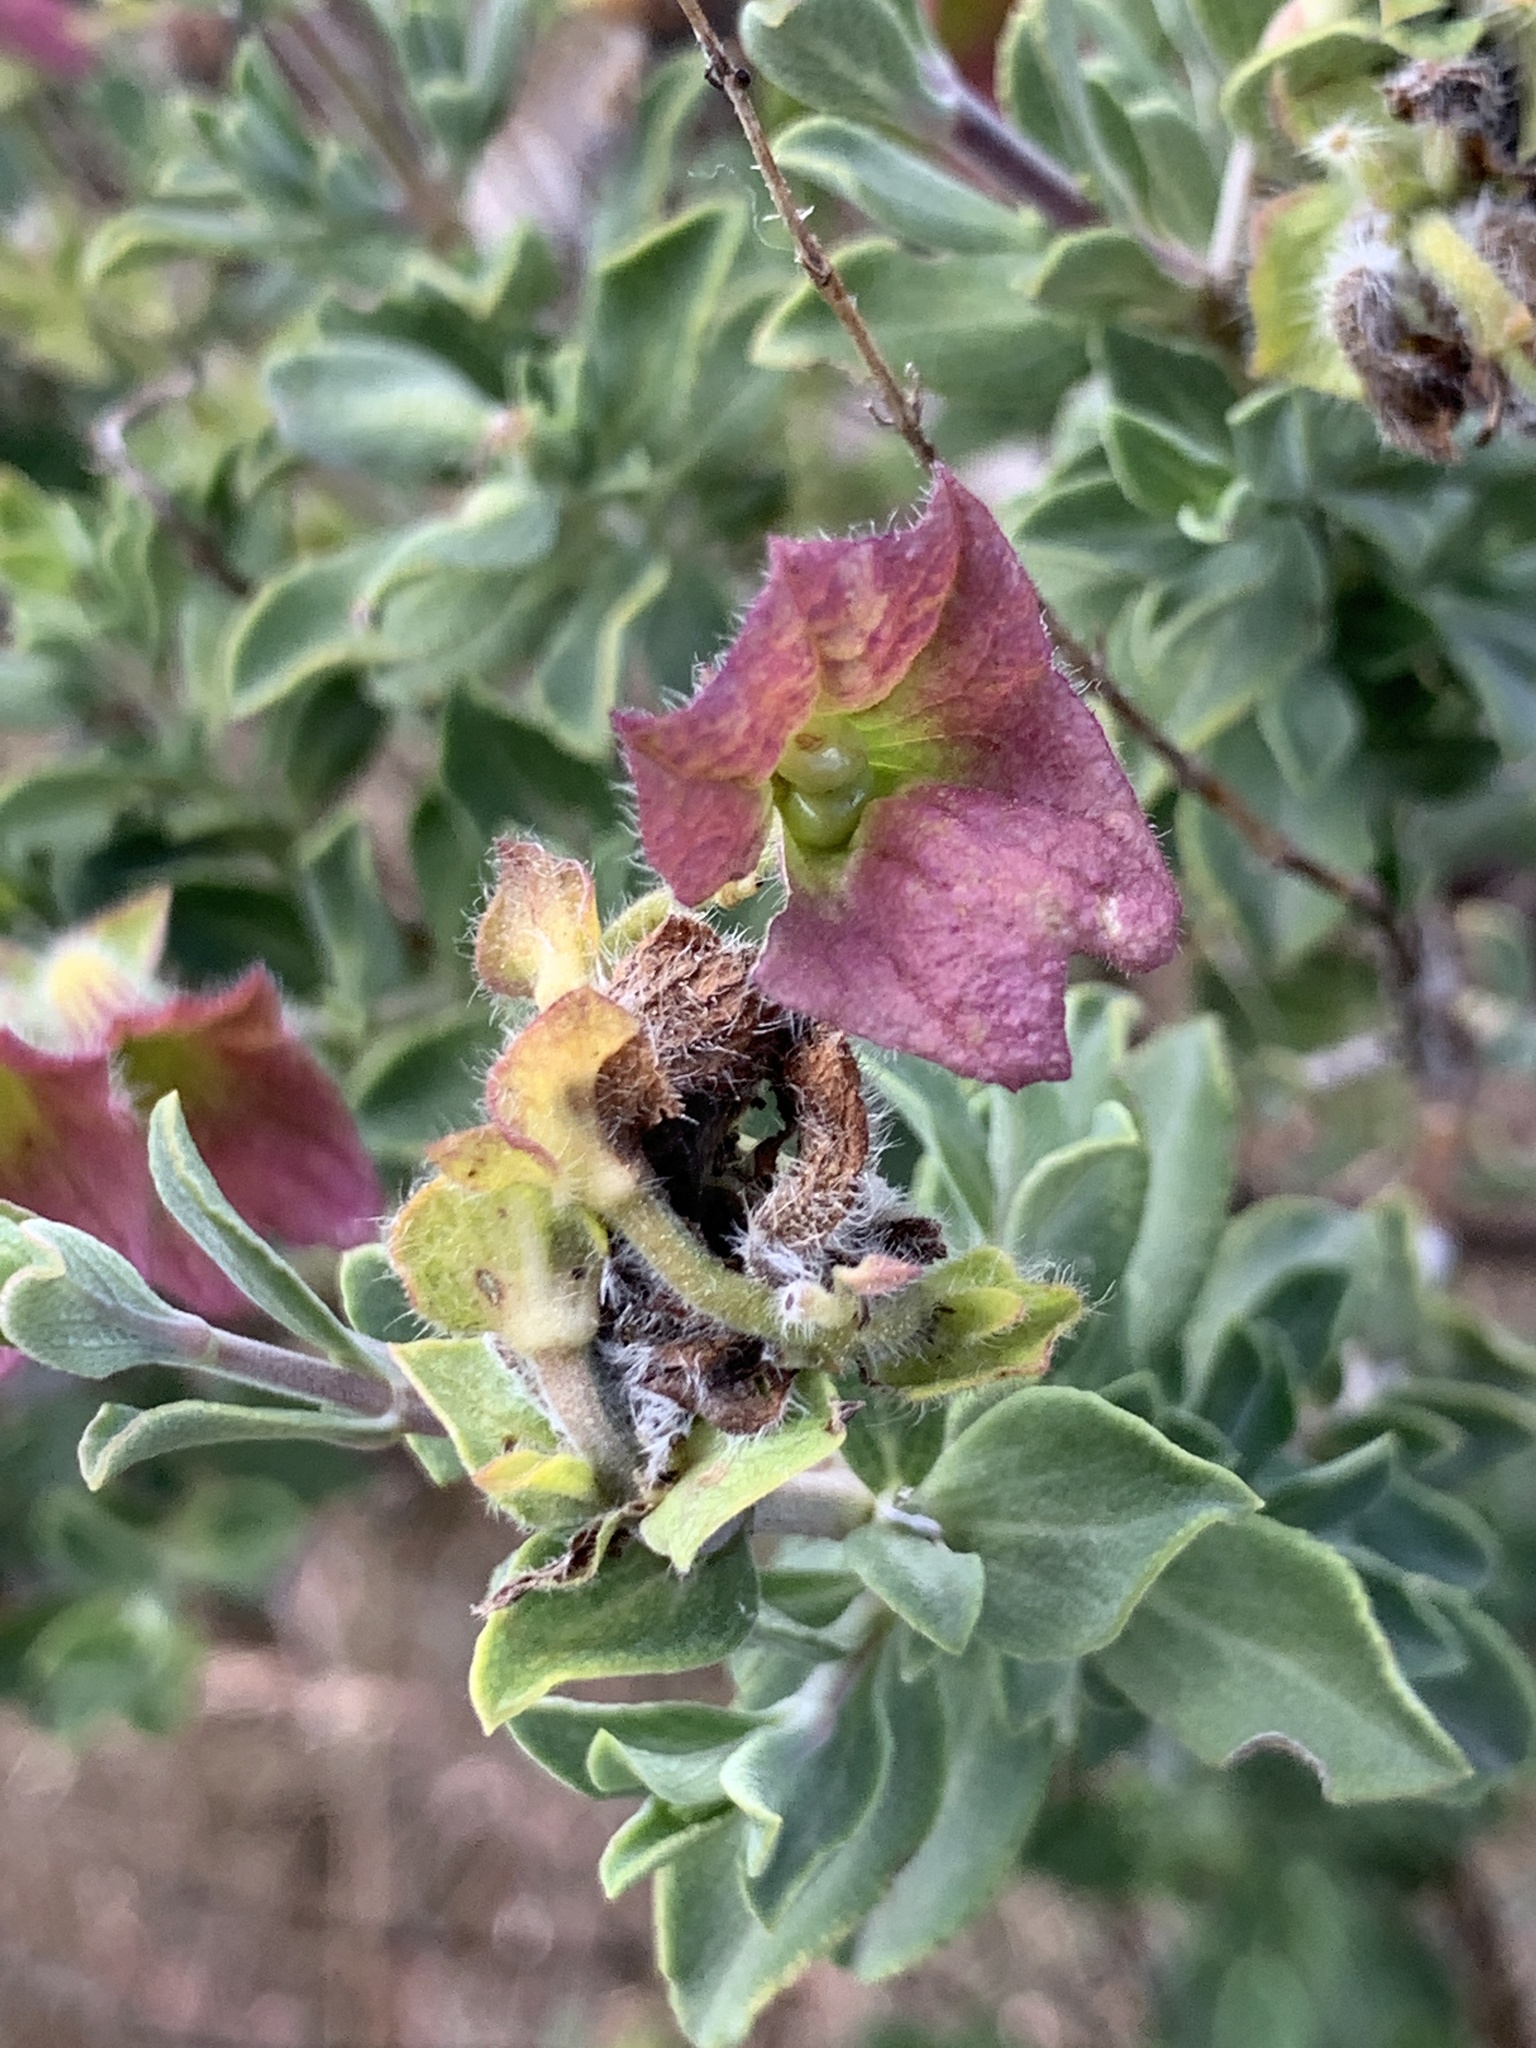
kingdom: Plantae
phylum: Tracheophyta
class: Magnoliopsida
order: Lamiales
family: Lamiaceae
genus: Salvia
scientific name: Salvia africana
